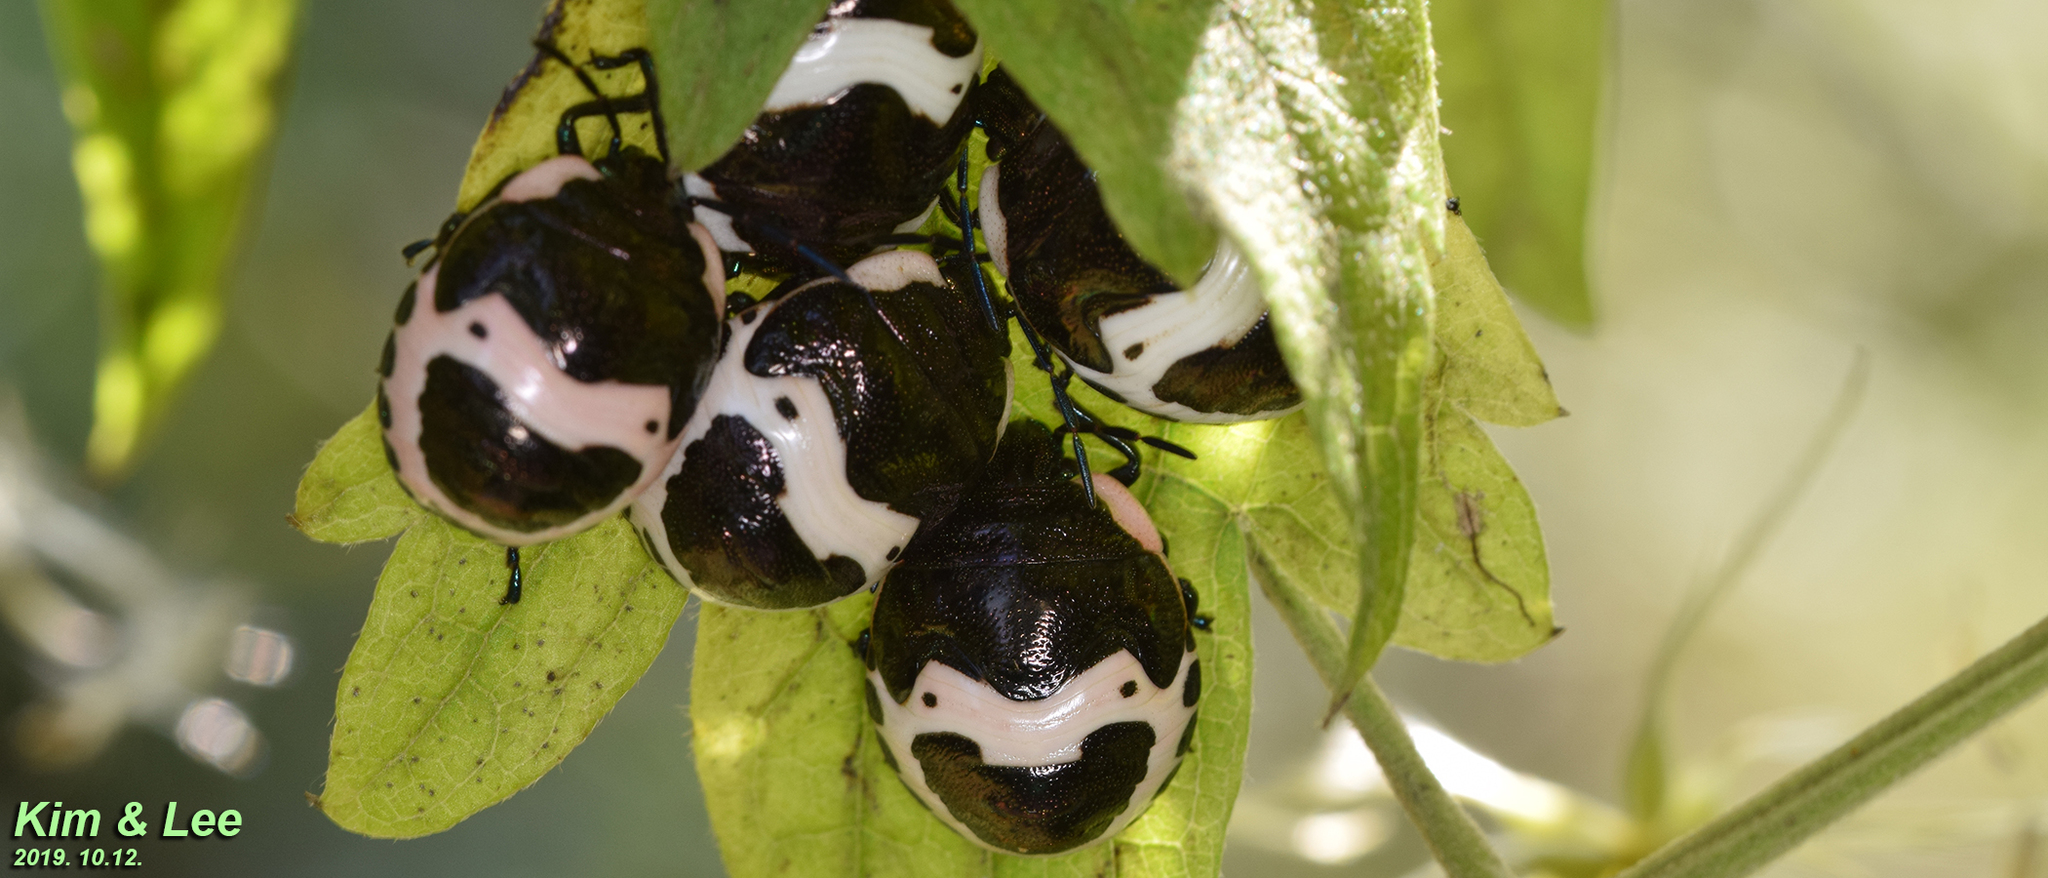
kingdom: Animalia
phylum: Arthropoda
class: Insecta
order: Hemiptera
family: Scutelleridae
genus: Poecilocoris
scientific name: Poecilocoris lewisi
